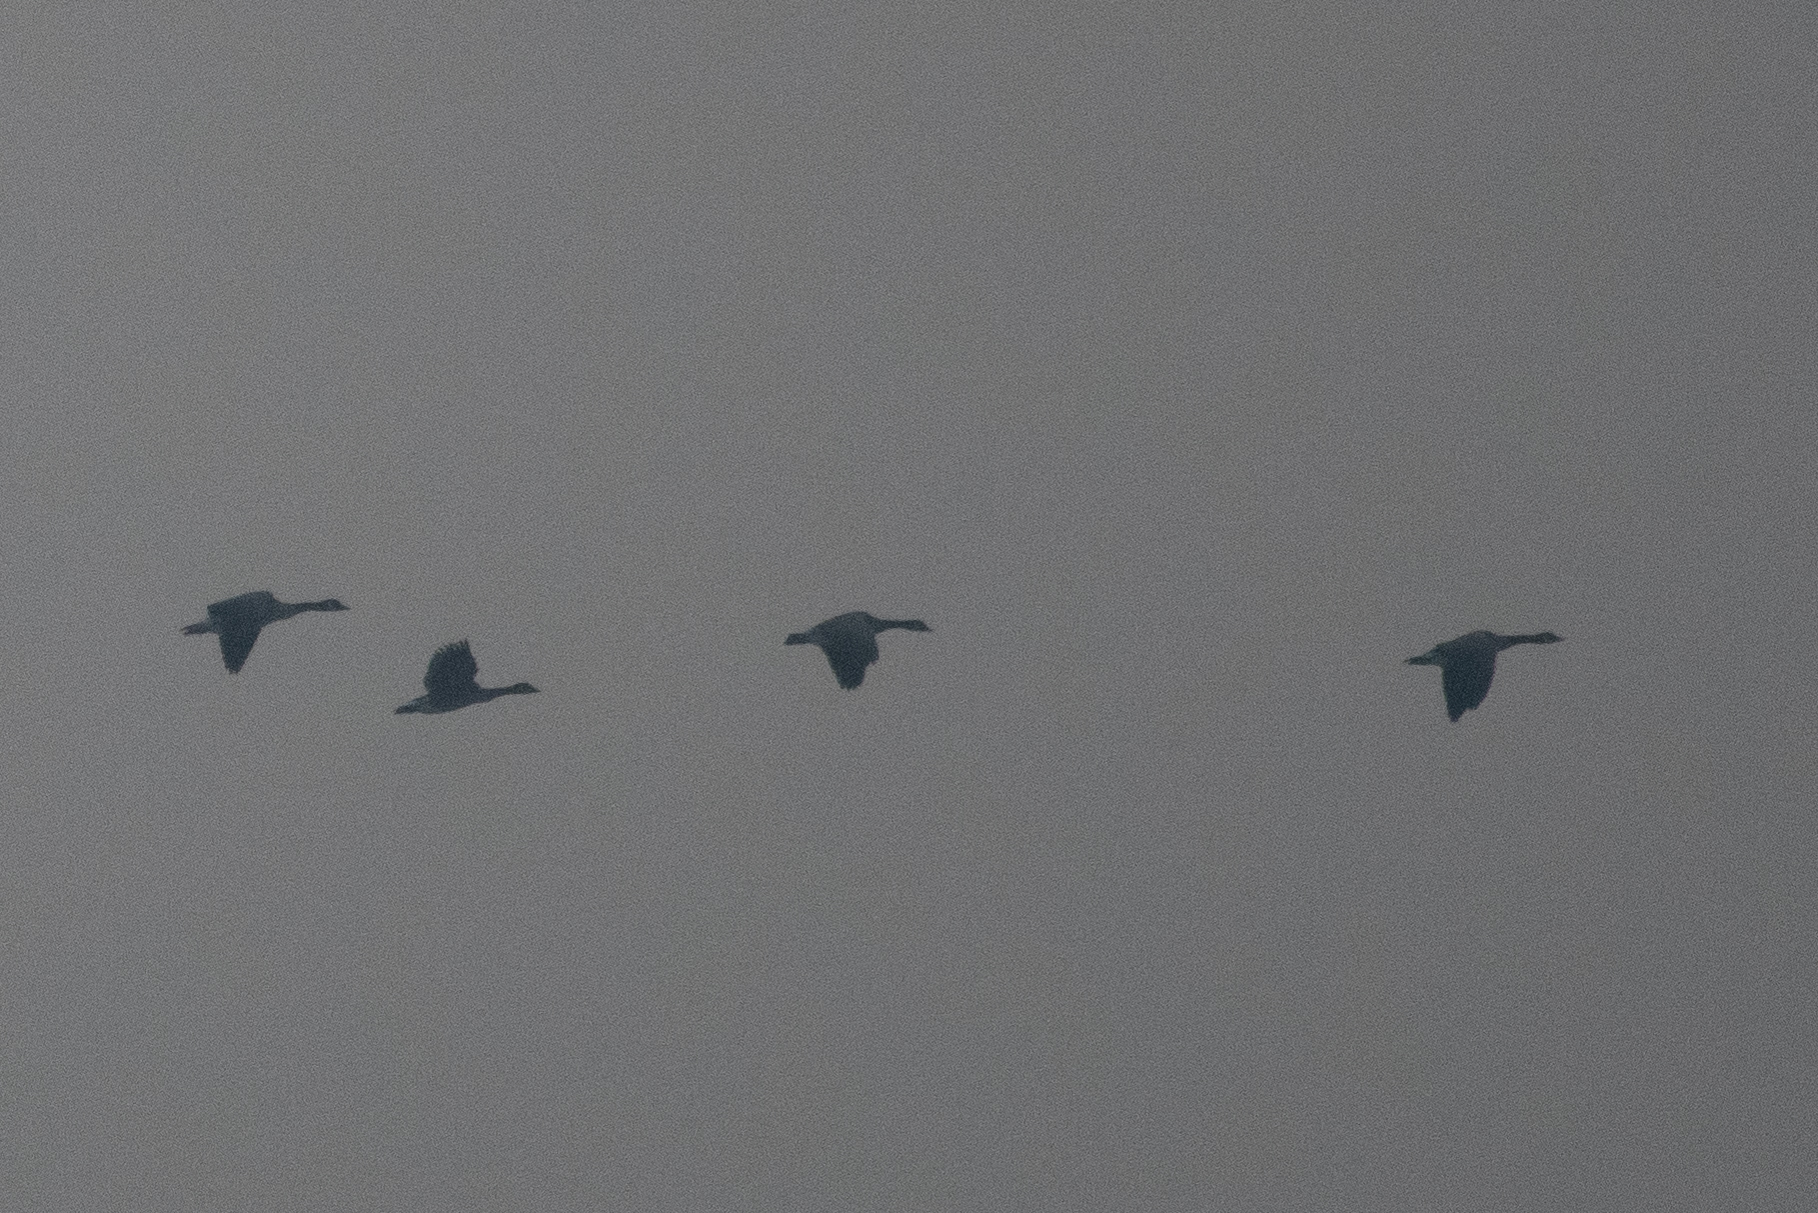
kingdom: Animalia
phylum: Chordata
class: Aves
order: Anseriformes
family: Anatidae
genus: Branta
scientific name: Branta canadensis
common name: Canada goose
